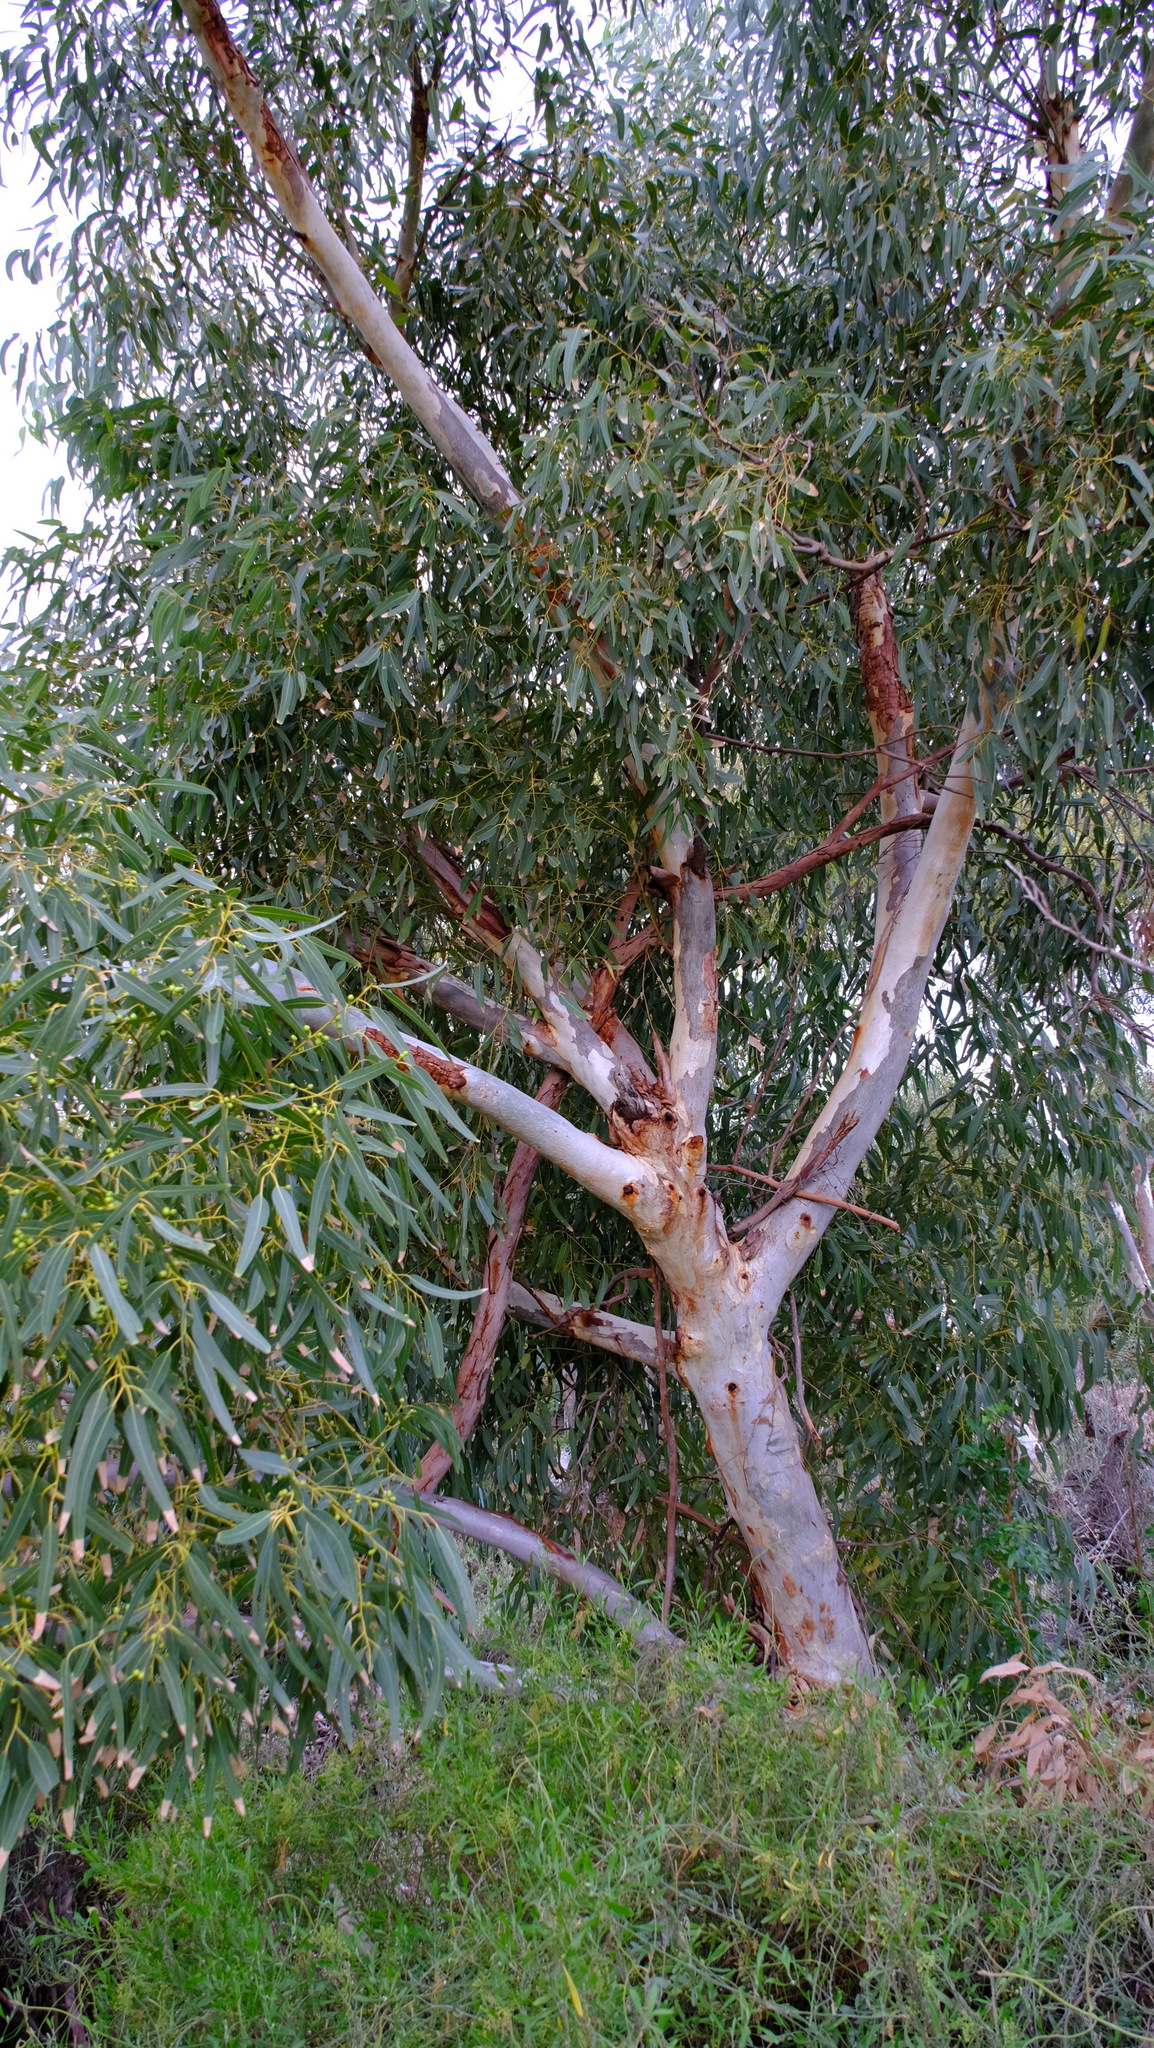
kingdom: Plantae
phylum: Tracheophyta
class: Magnoliopsida
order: Myrtales
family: Myrtaceae
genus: Eucalyptus
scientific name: Eucalyptus camaldulensis
